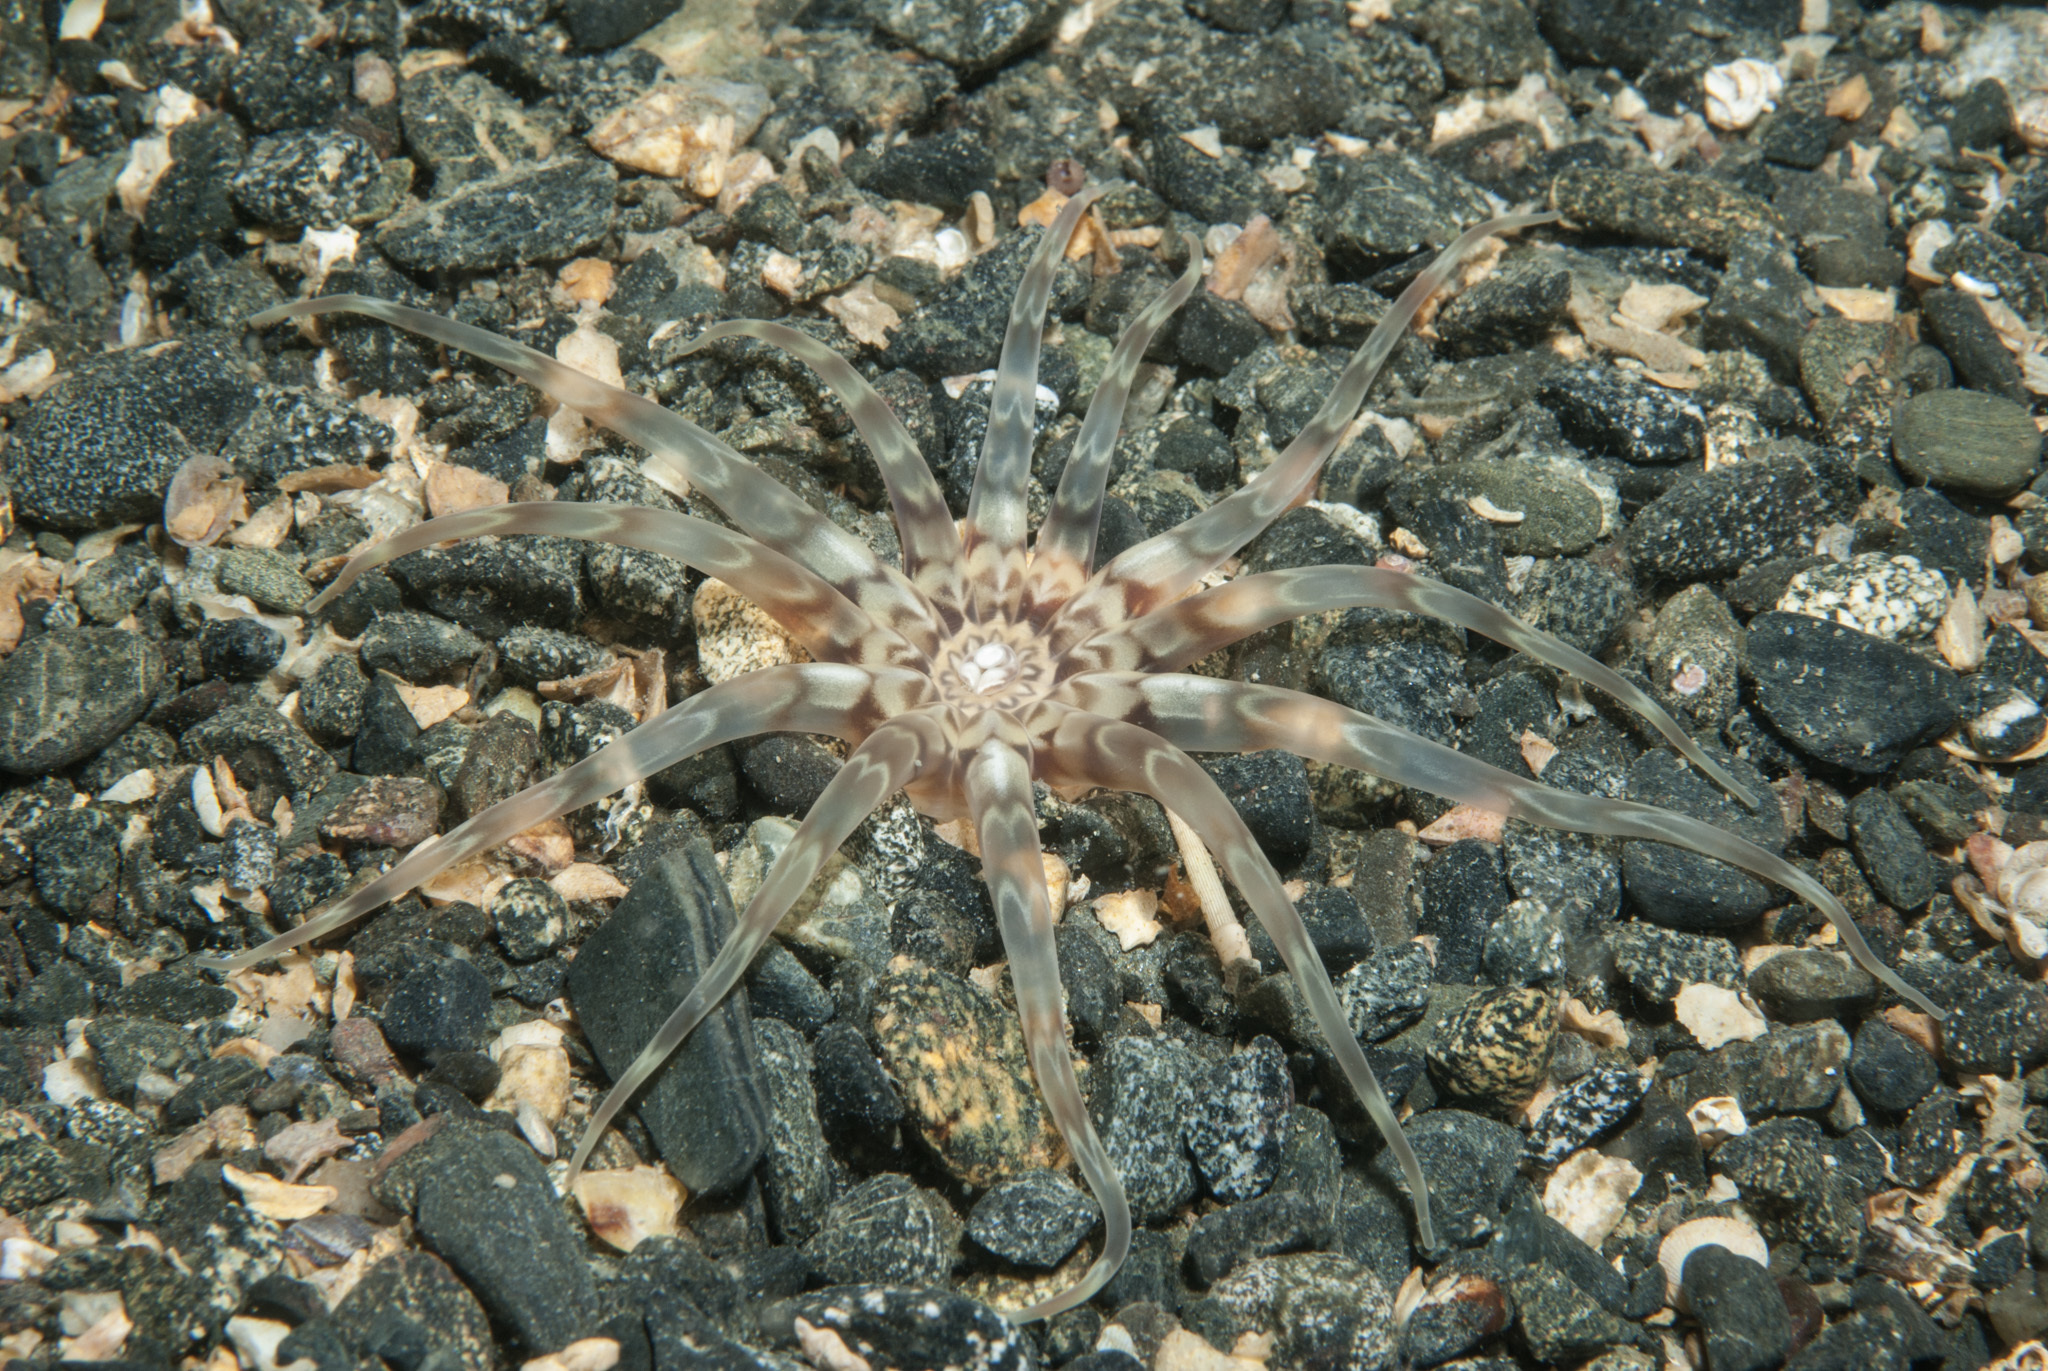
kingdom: Animalia
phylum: Cnidaria
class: Anthozoa
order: Actiniaria
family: Peachiidae
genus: Peachia
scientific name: Peachia cylindrica
